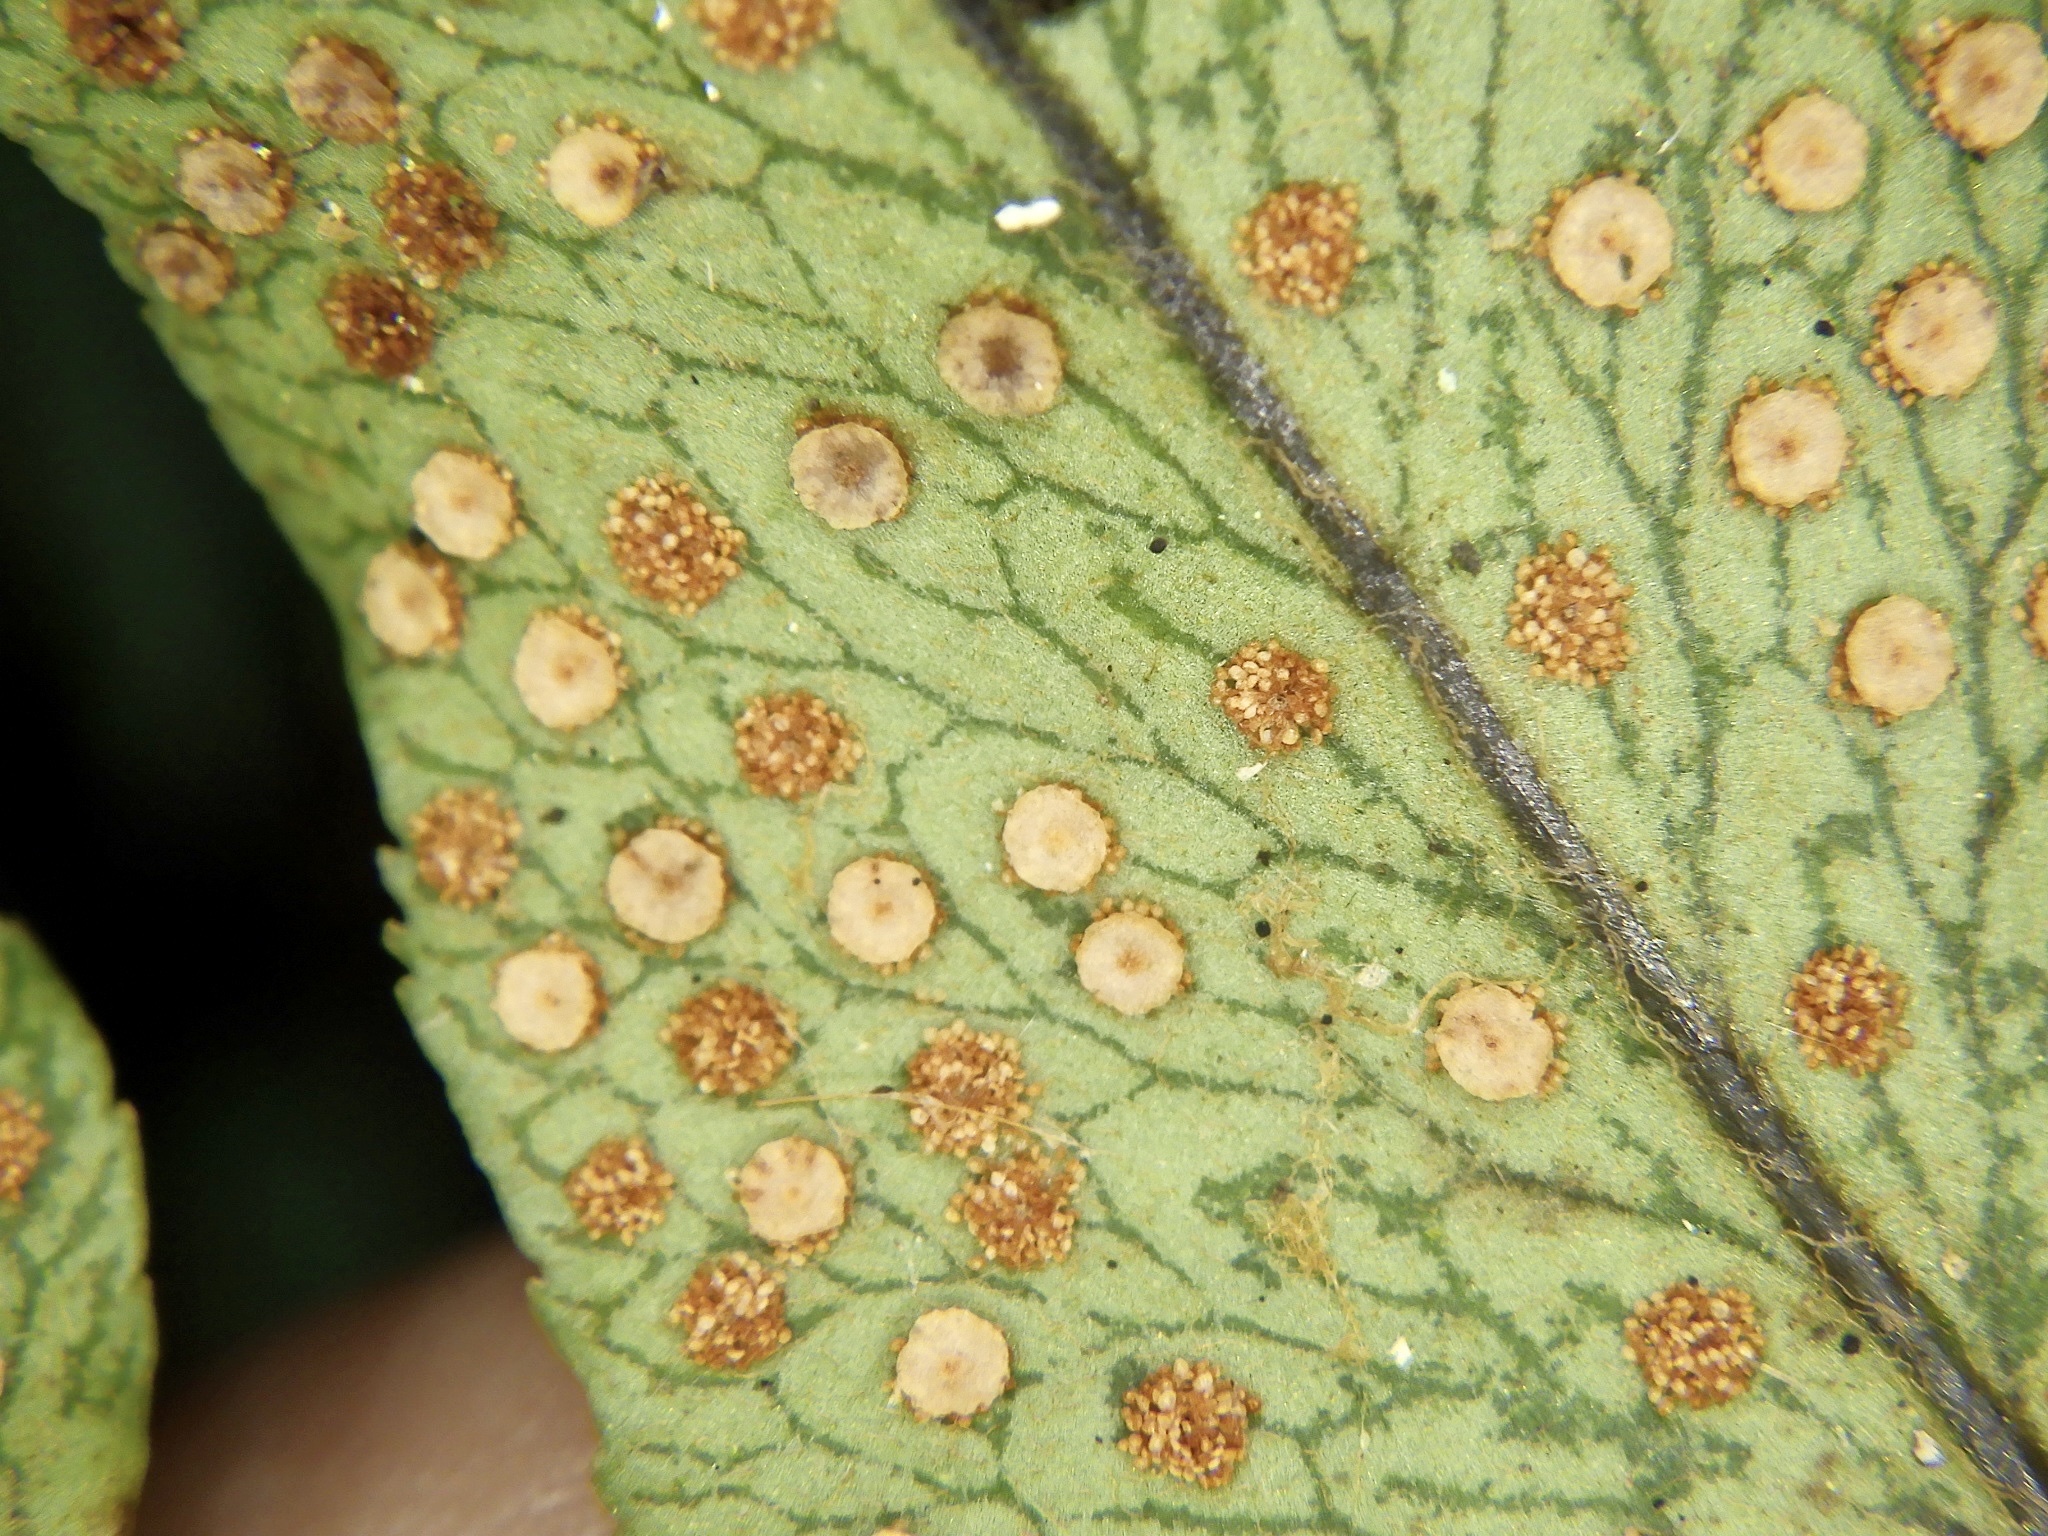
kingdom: Plantae
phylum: Tracheophyta
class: Polypodiopsida
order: Polypodiales
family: Dryopteridaceae
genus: Cyrtomium
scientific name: Cyrtomium clivicola
